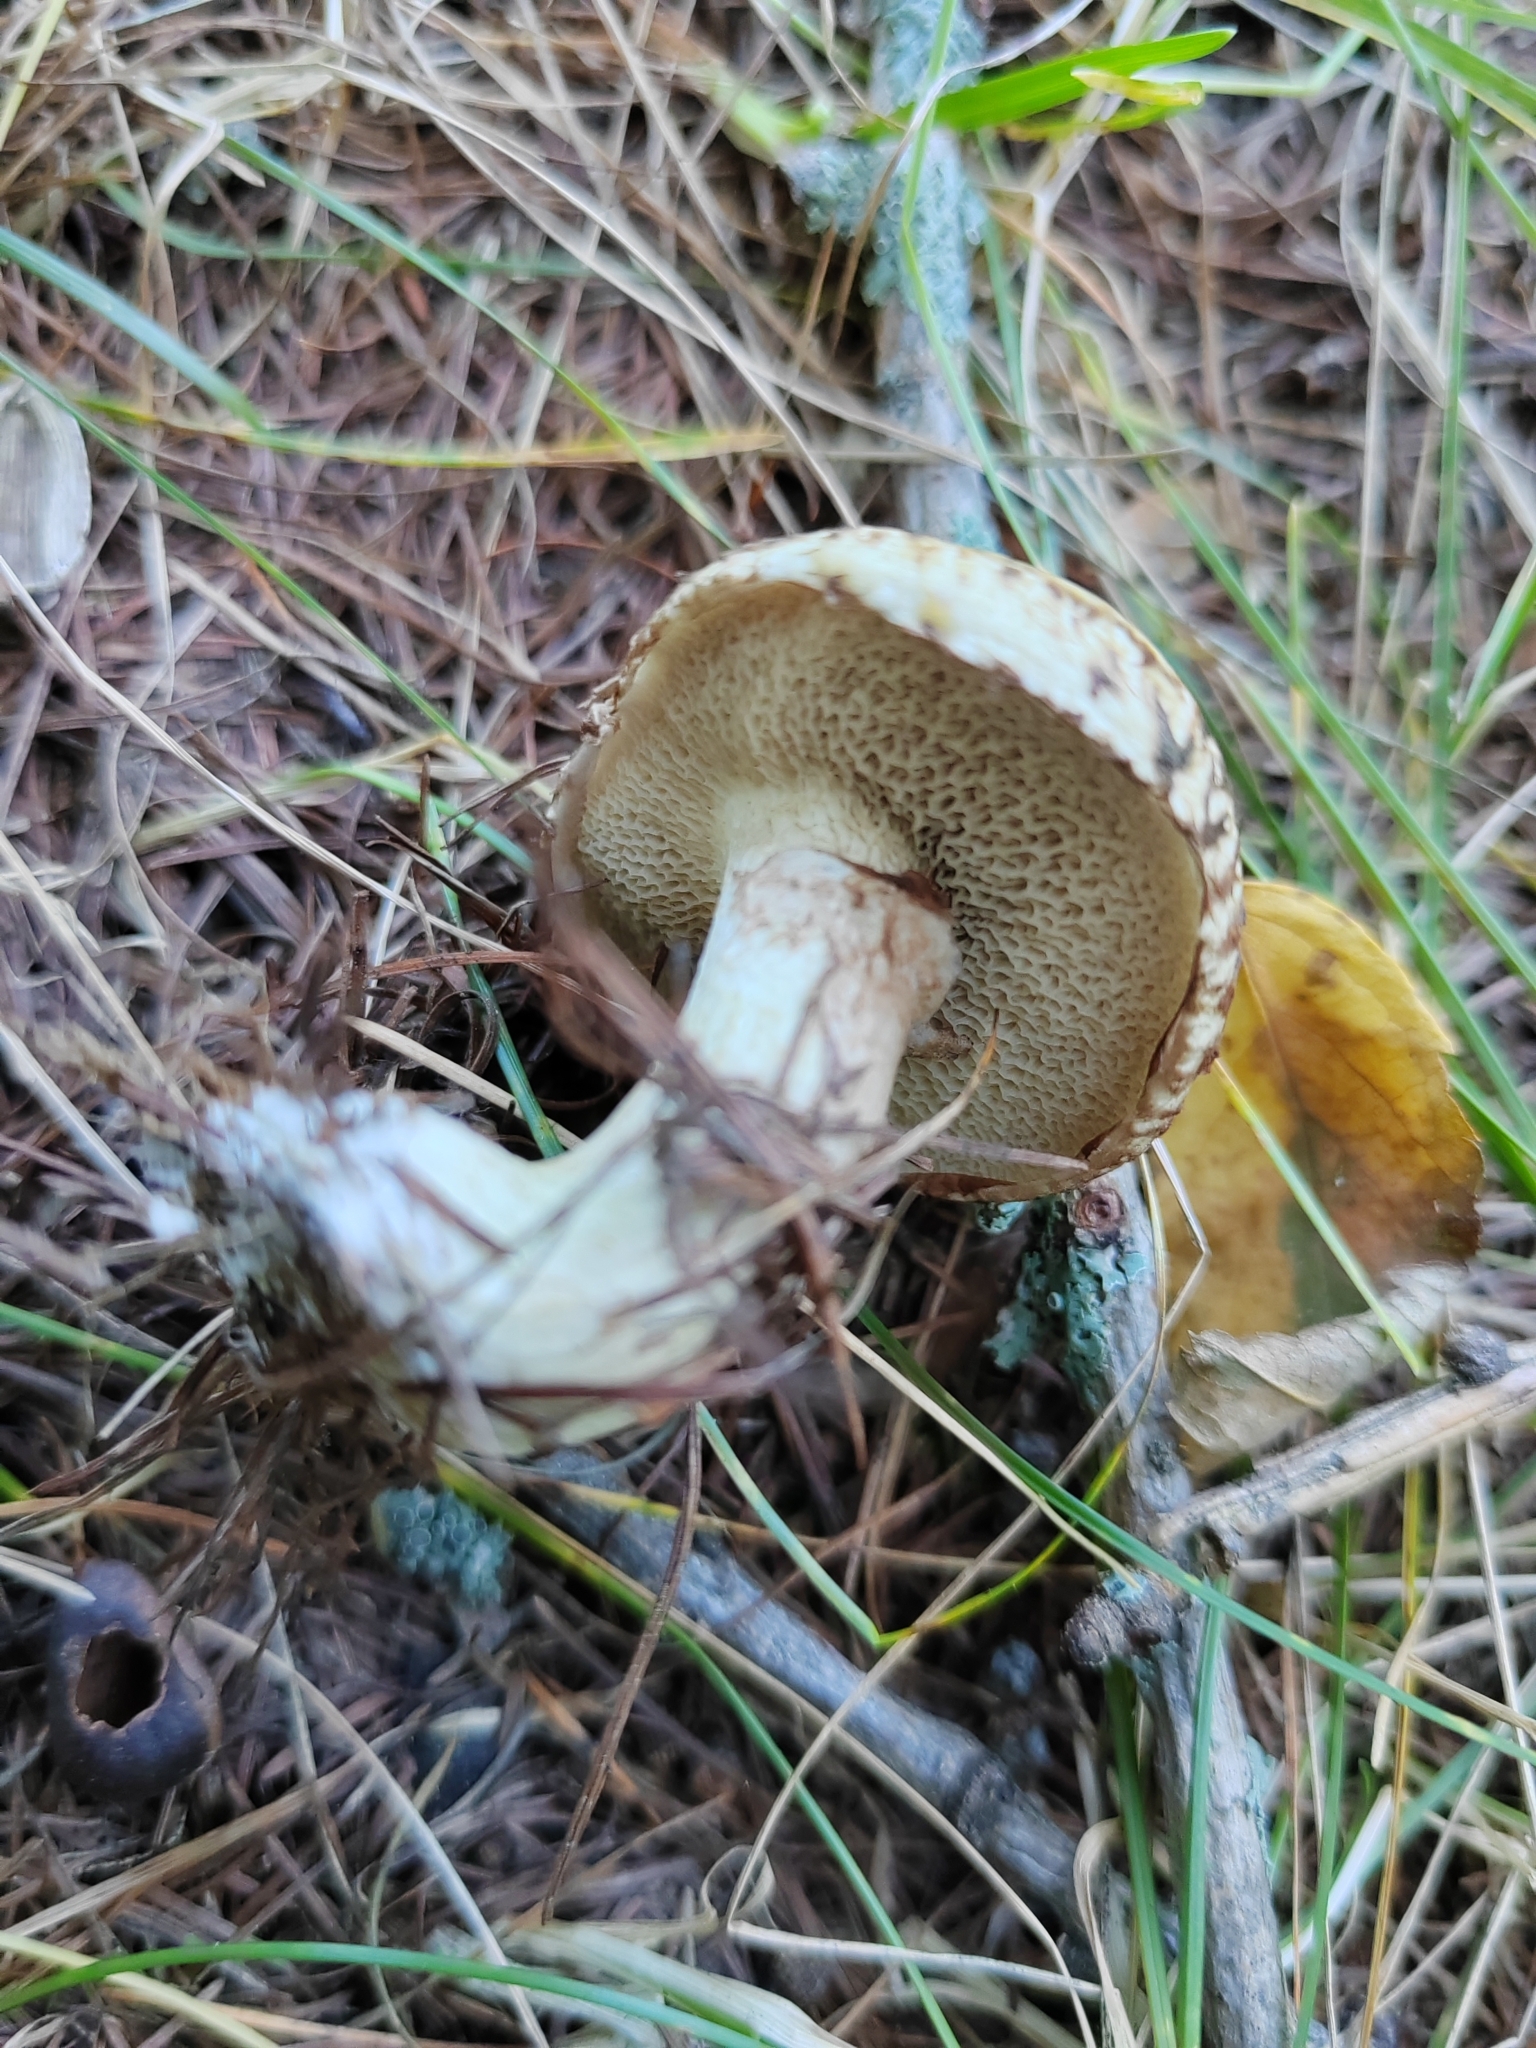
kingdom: Fungi
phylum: Basidiomycota
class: Agaricomycetes
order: Boletales
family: Suillaceae
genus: Suillus
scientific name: Suillus viscidus
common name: Sticky bolete
